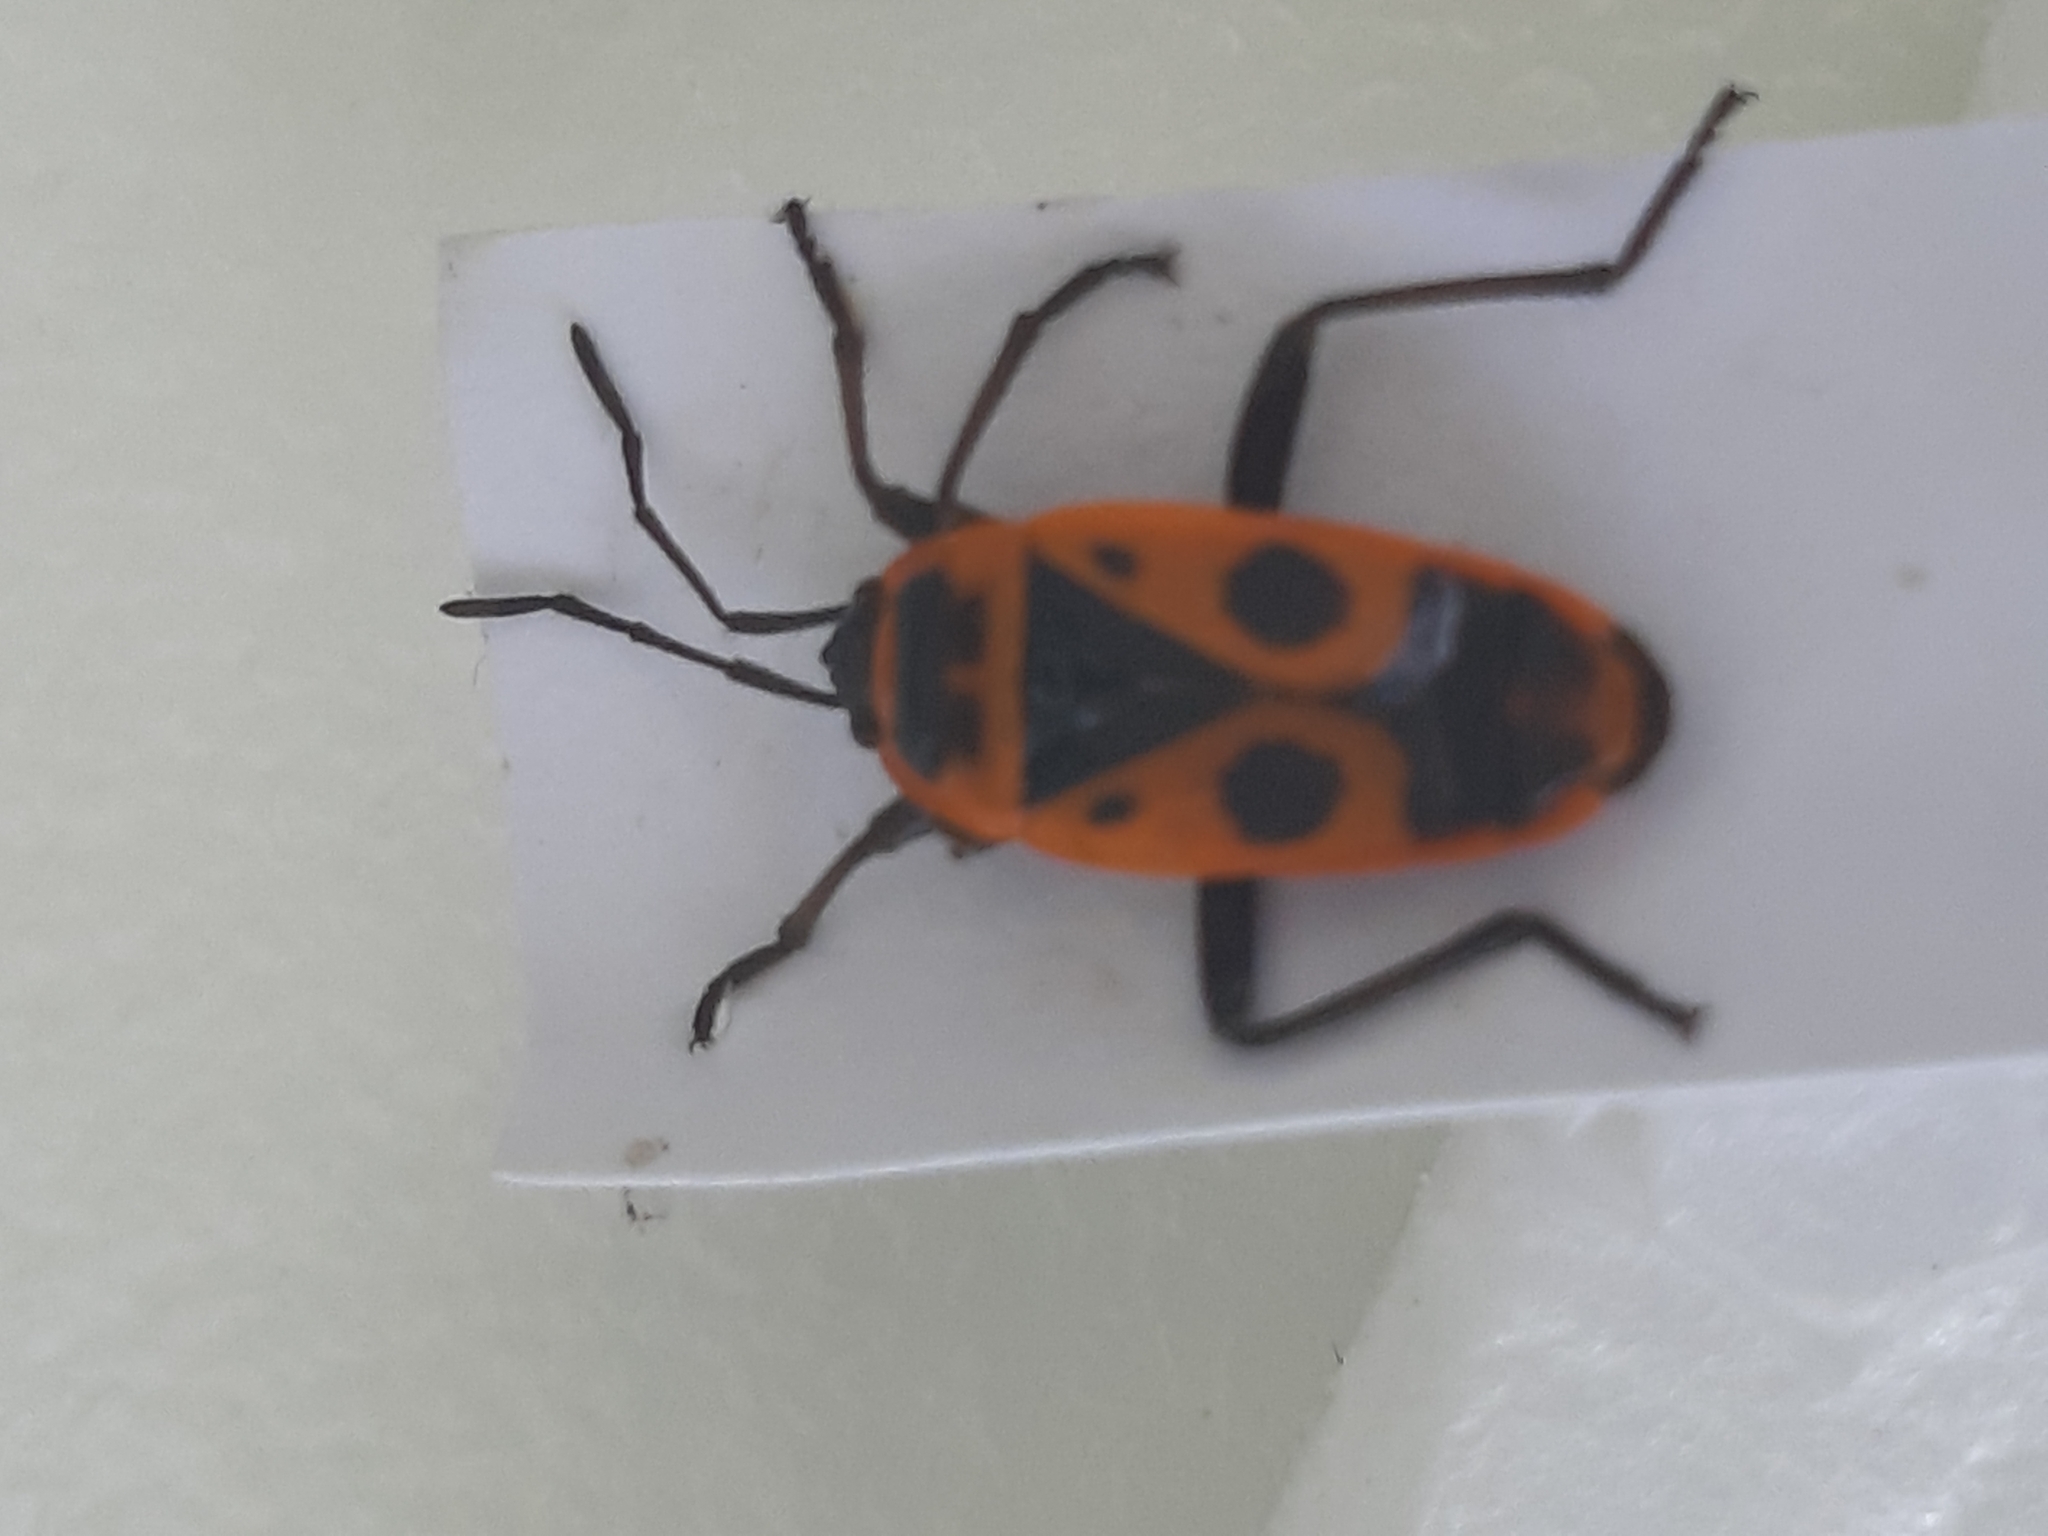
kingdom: Animalia
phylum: Arthropoda
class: Insecta
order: Hemiptera
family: Pyrrhocoridae
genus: Pyrrhocoris
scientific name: Pyrrhocoris apterus
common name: Firebug
